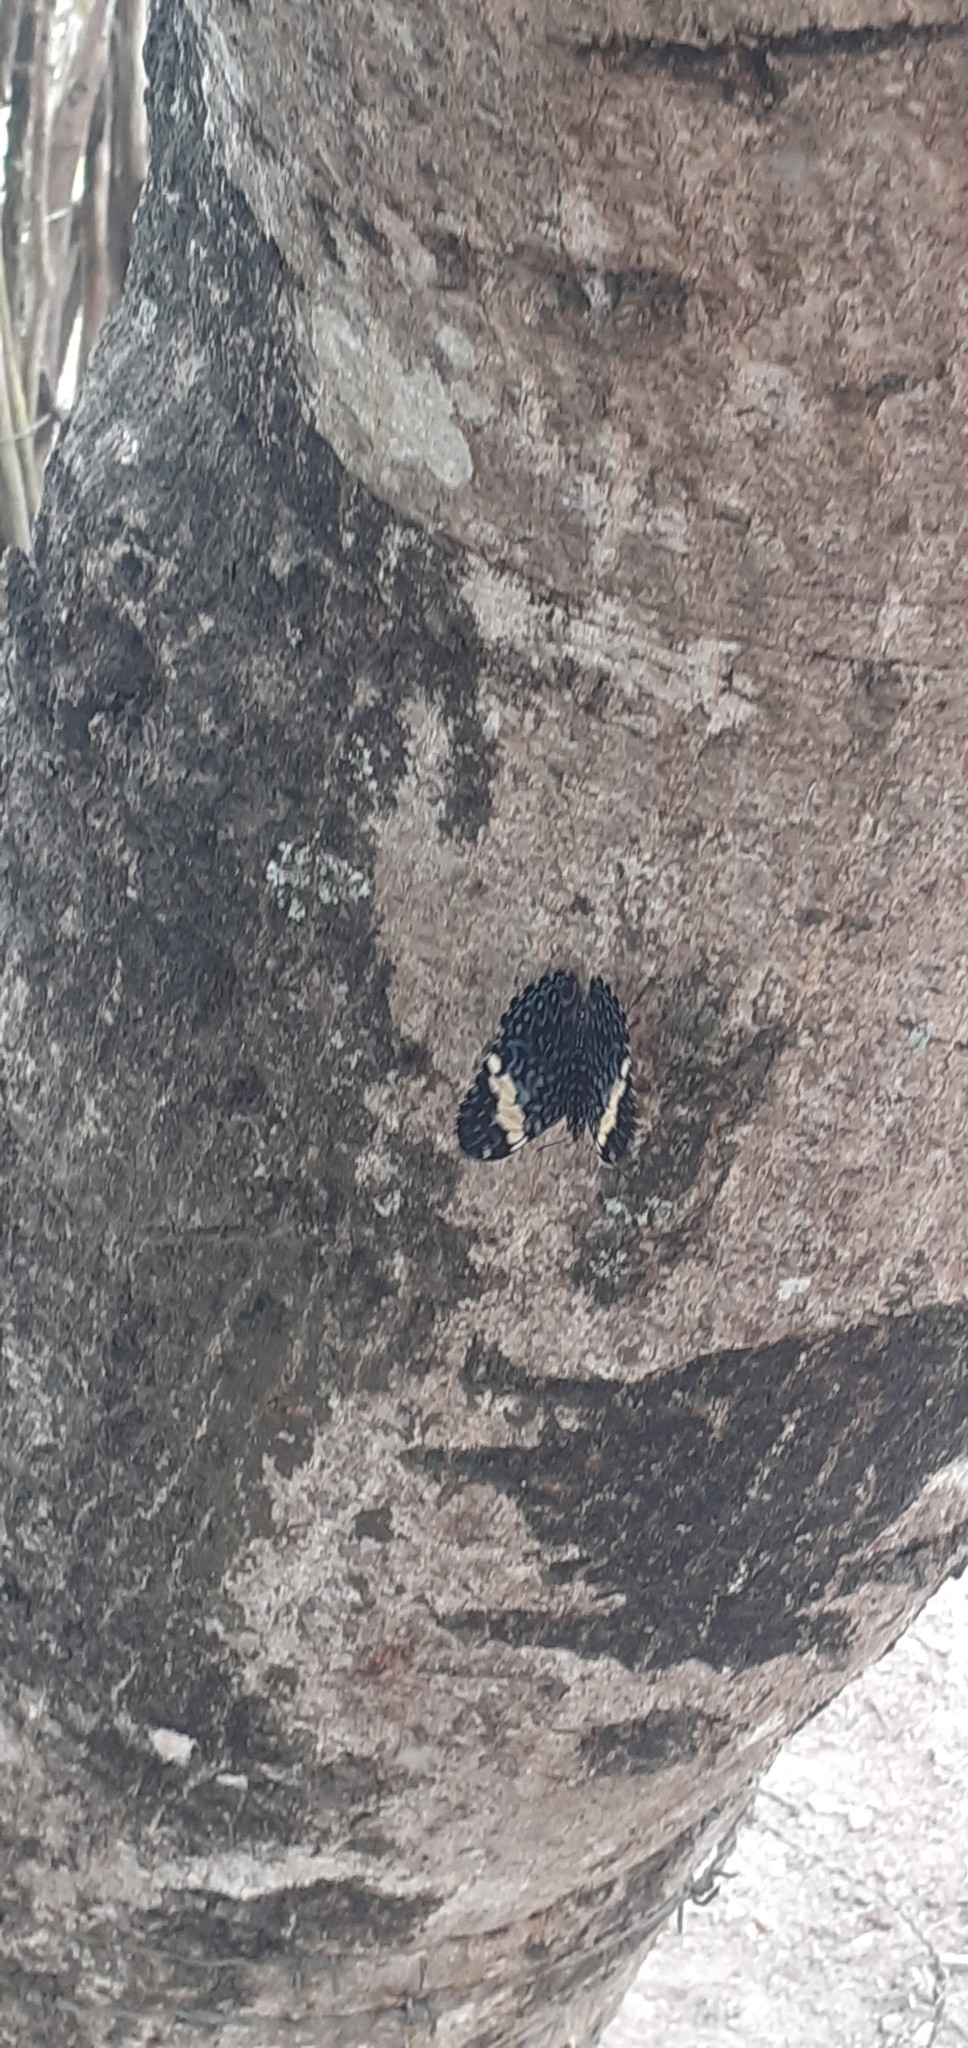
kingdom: Animalia
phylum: Arthropoda
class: Insecta
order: Lepidoptera
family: Nymphalidae
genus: Hamadryas
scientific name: Hamadryas amphinome
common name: Red cracker
